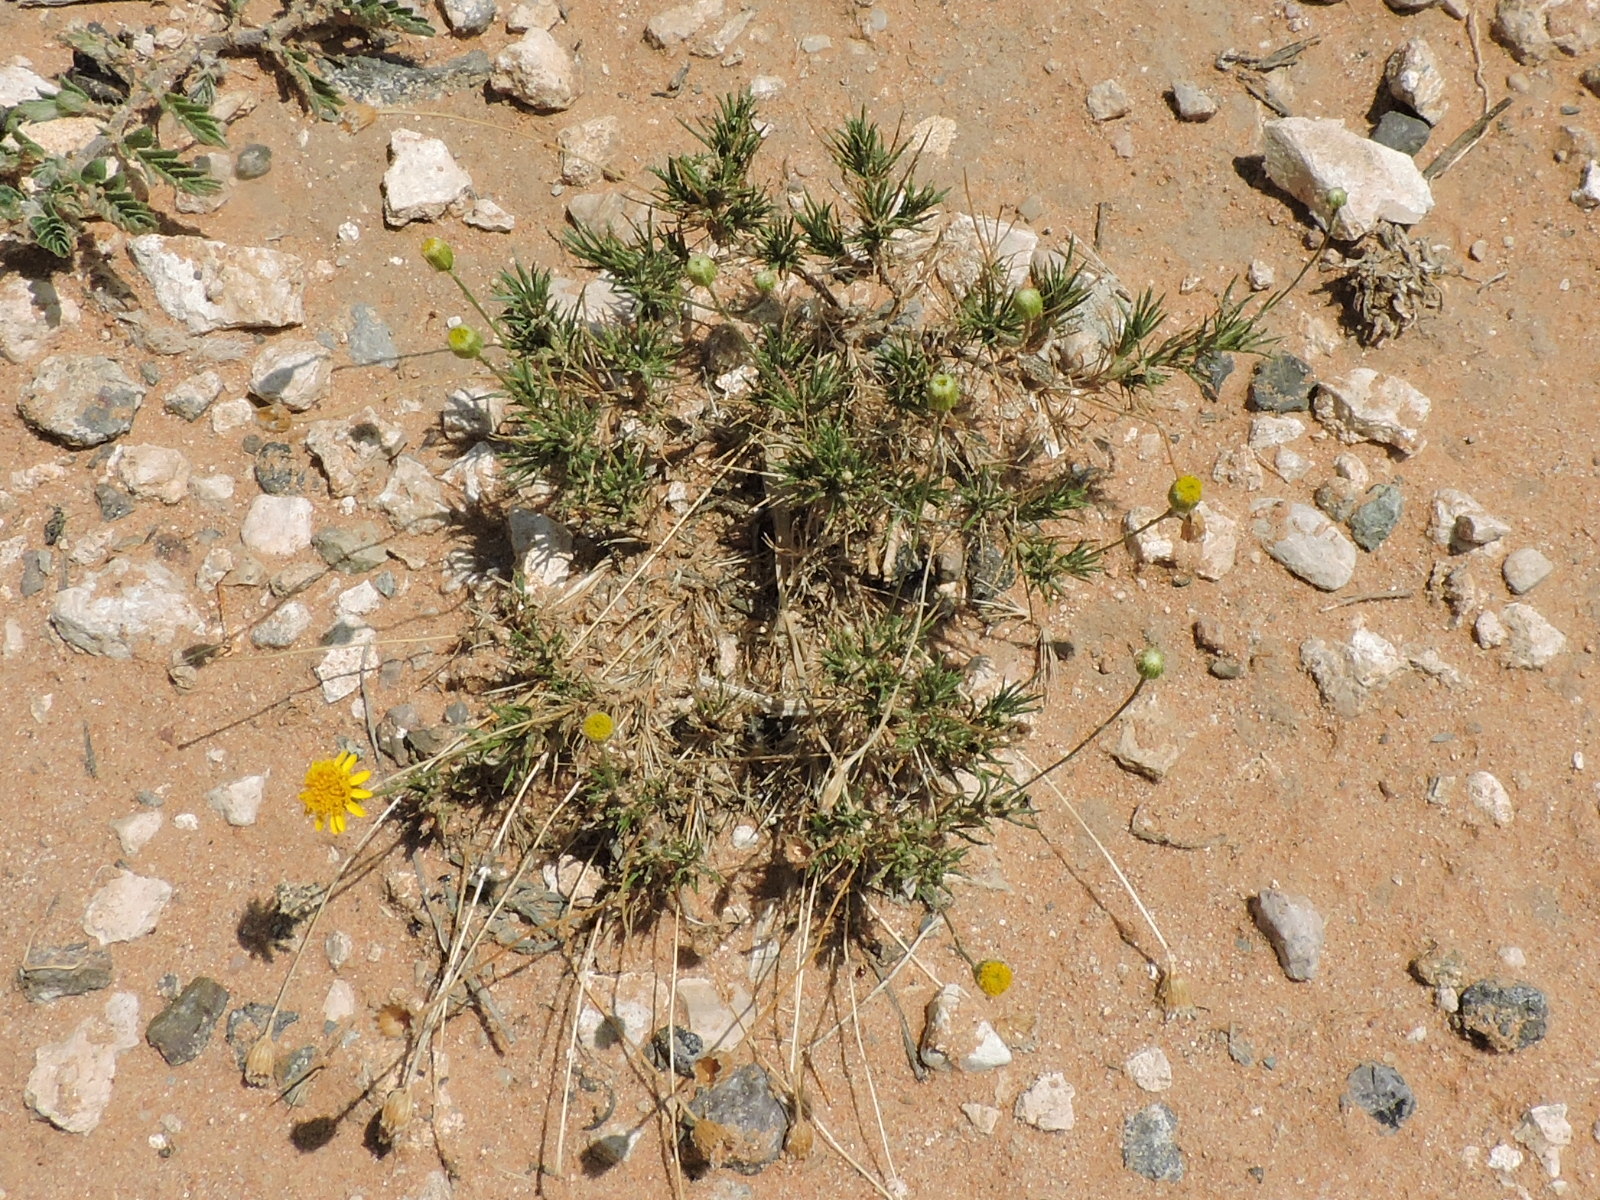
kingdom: Plantae
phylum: Tracheophyta
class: Magnoliopsida
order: Asterales
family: Asteraceae
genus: Thymophylla
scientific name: Thymophylla pentachaeta
